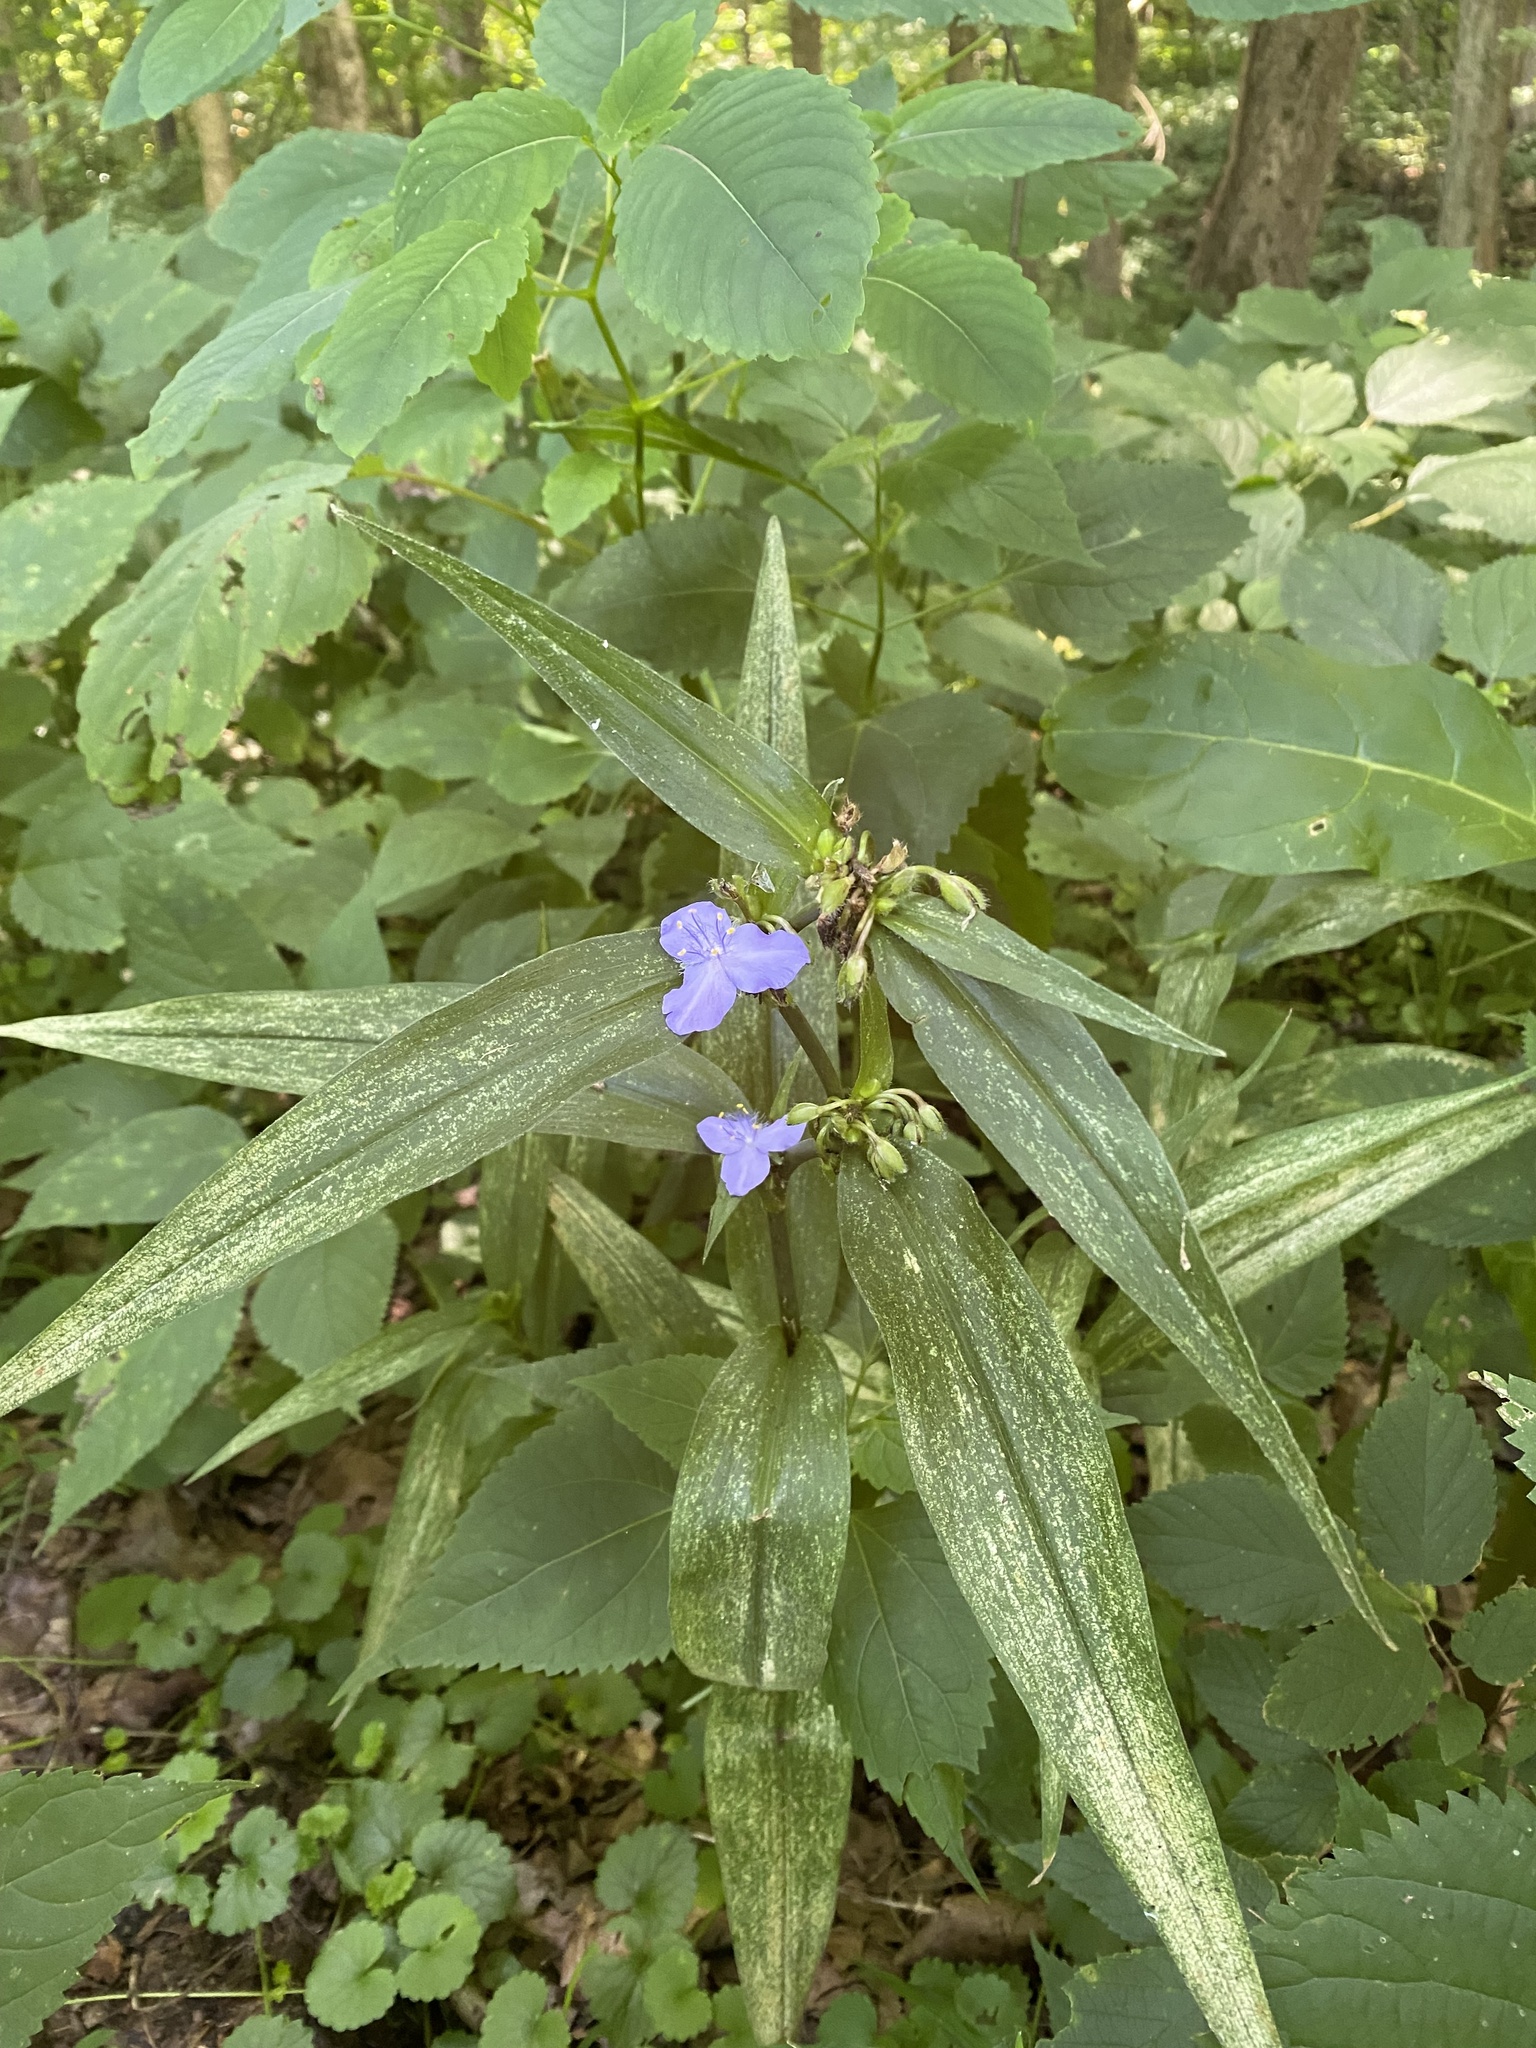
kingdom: Plantae
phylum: Tracheophyta
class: Liliopsida
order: Commelinales
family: Commelinaceae
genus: Tradescantia
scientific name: Tradescantia subaspera
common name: Wide-leaf spiderwort
